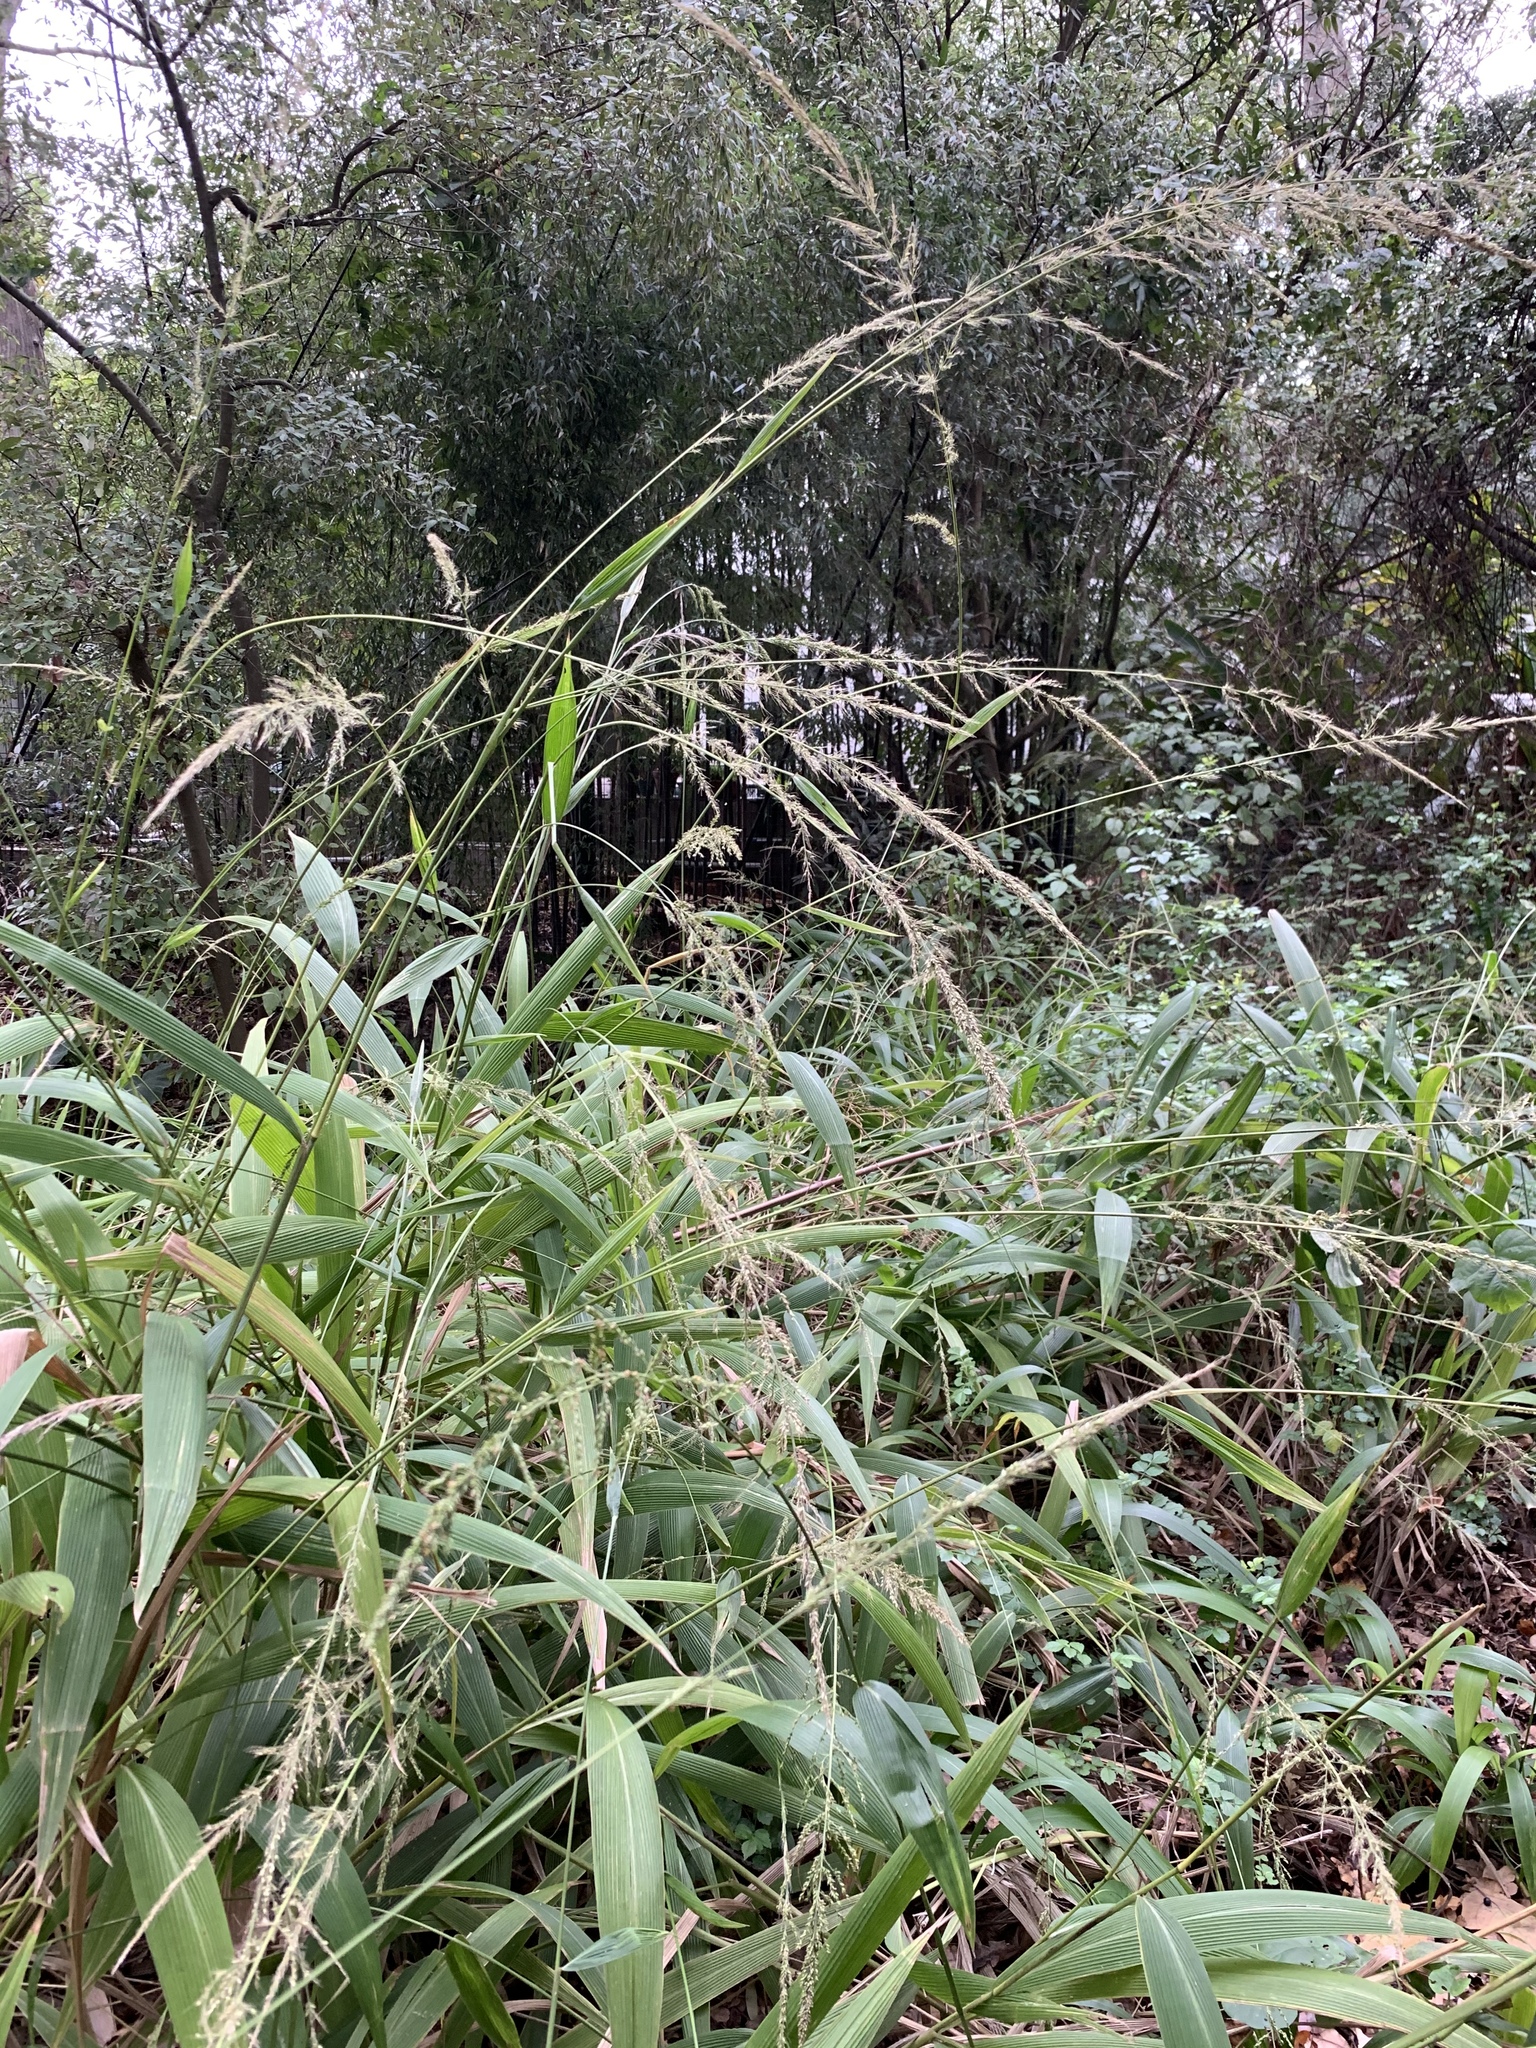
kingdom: Plantae
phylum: Tracheophyta
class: Liliopsida
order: Poales
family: Poaceae
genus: Setaria
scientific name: Setaria megaphylla
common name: Bigleaf bristlegrass
